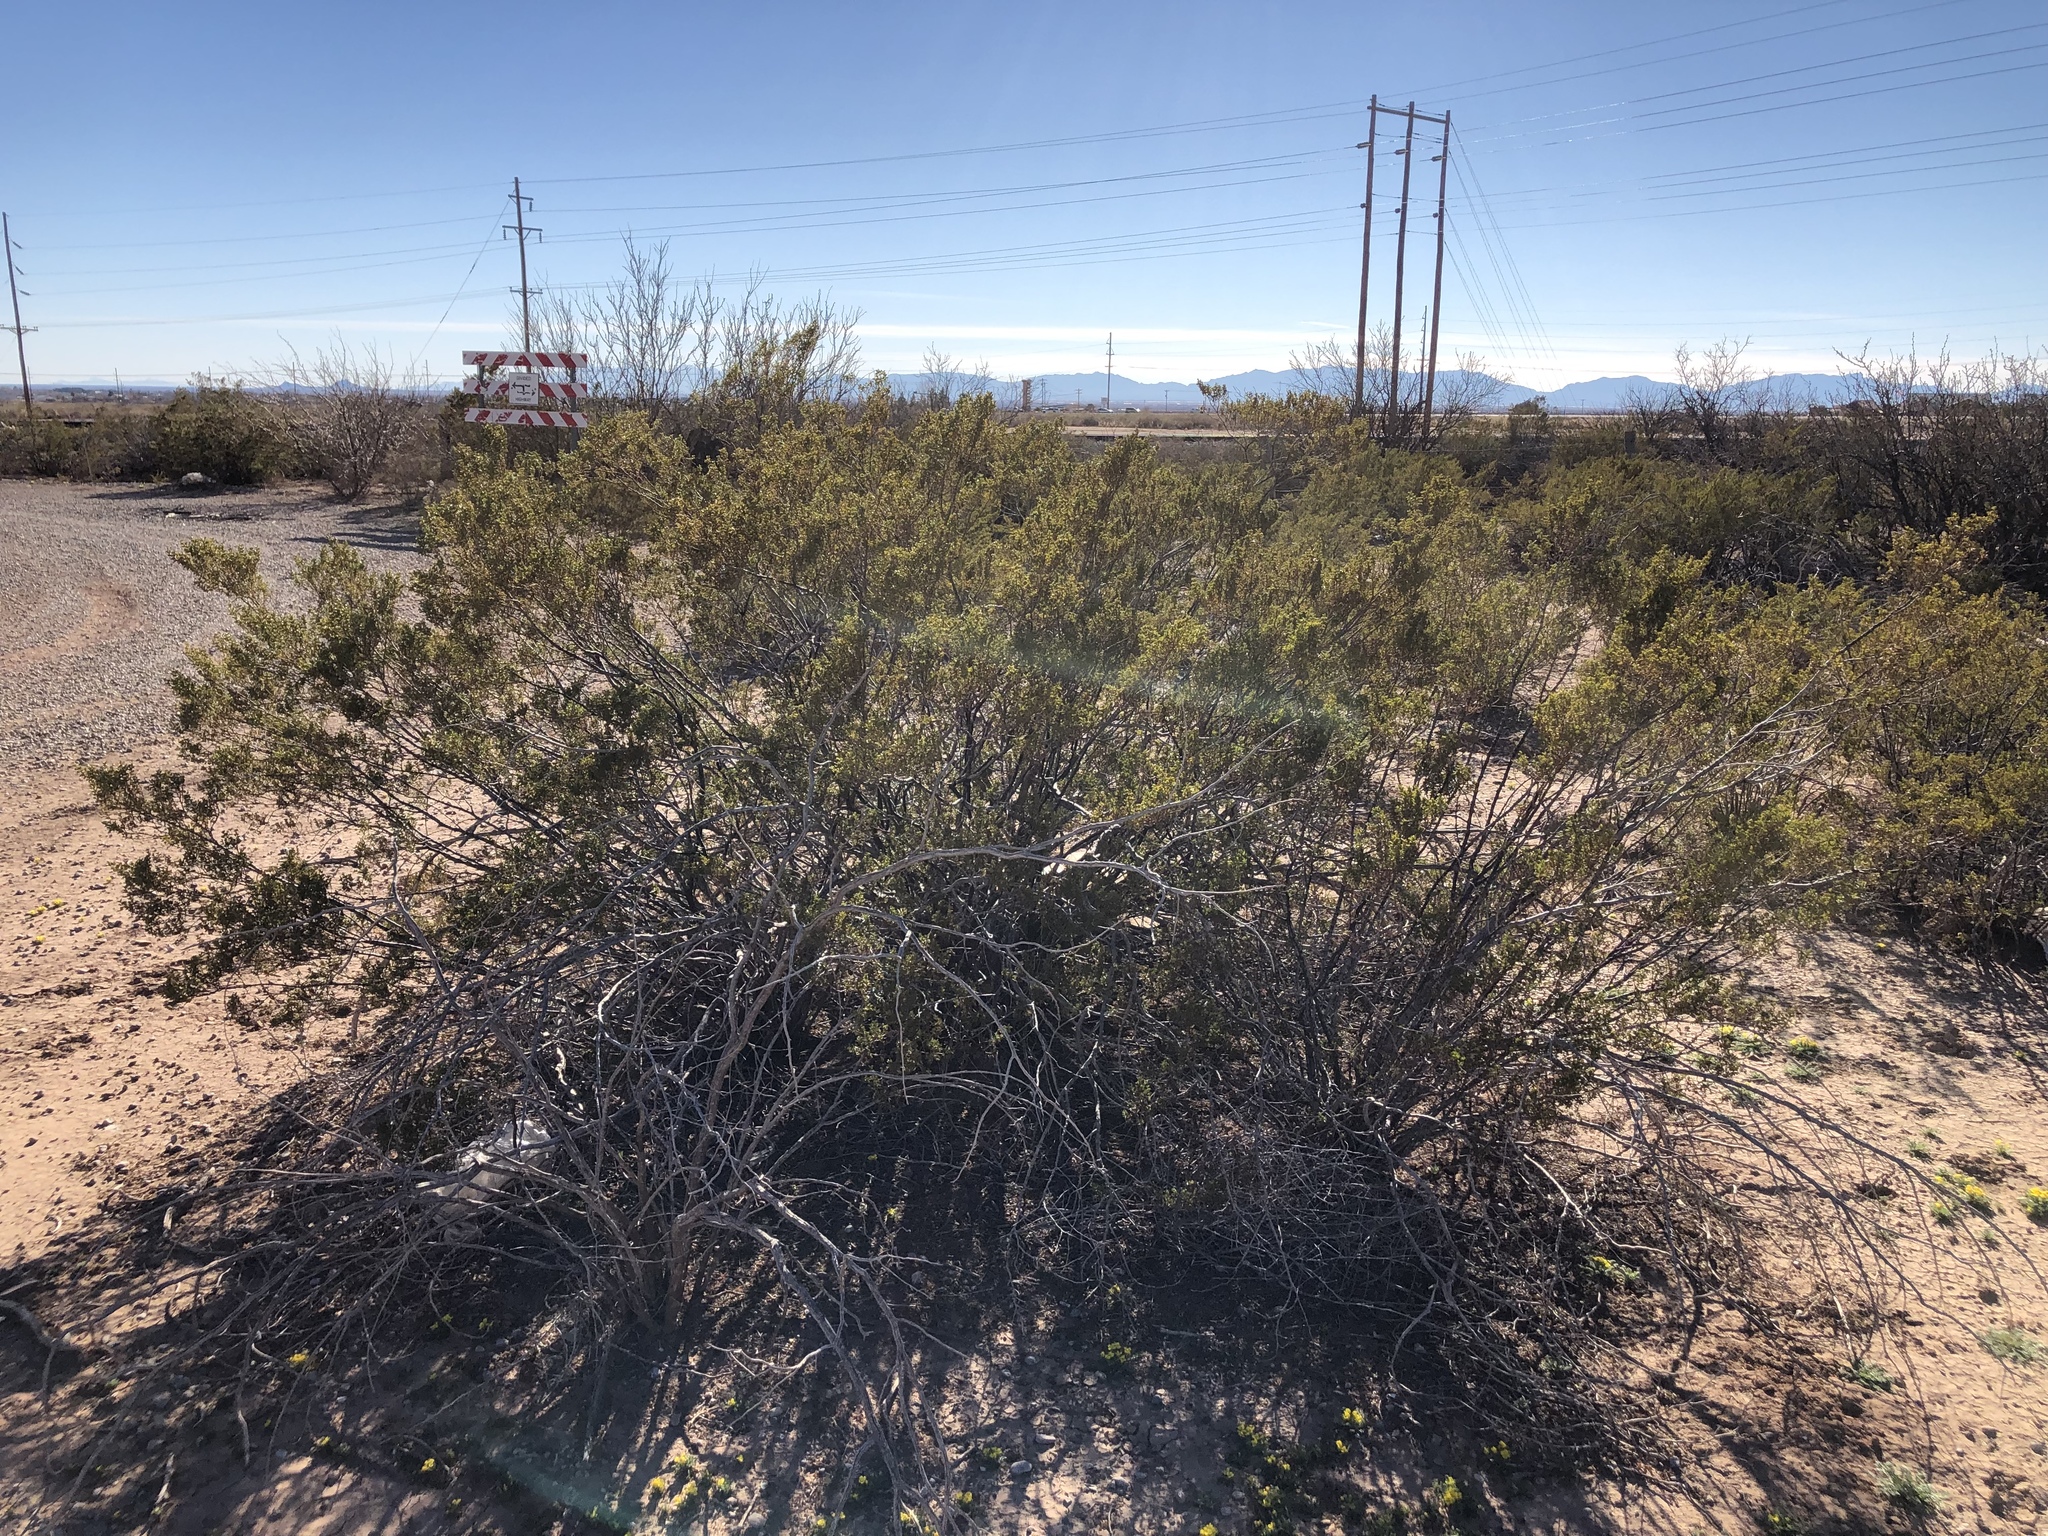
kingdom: Plantae
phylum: Tracheophyta
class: Magnoliopsida
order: Zygophyllales
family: Zygophyllaceae
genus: Larrea
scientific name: Larrea tridentata
